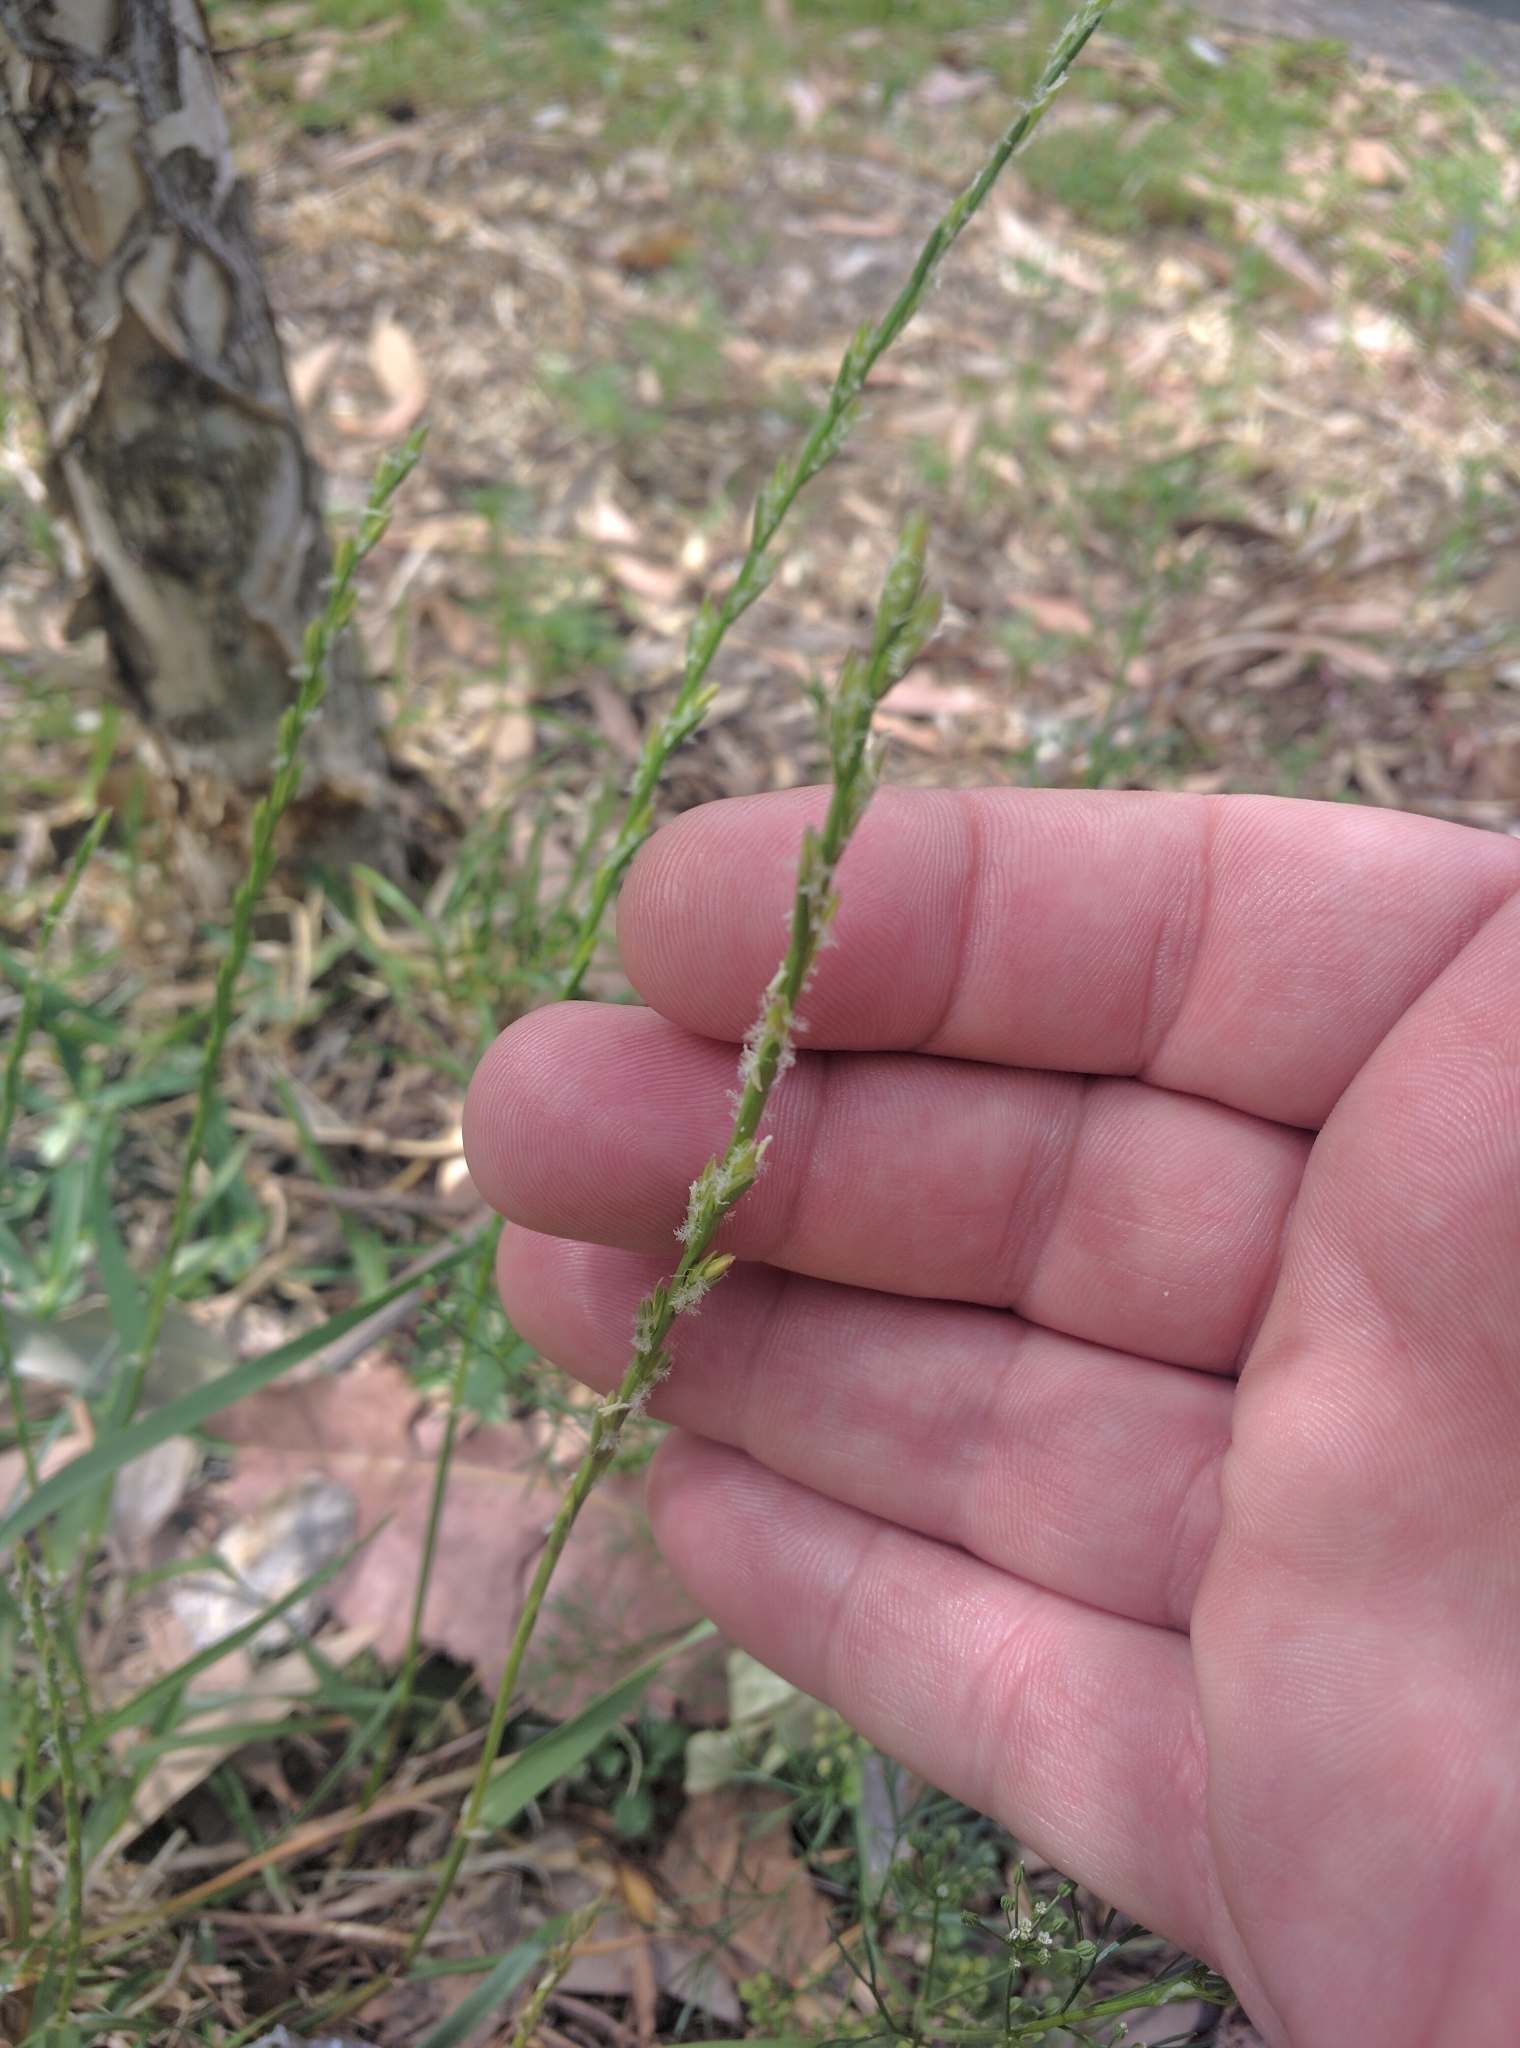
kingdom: Plantae
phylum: Tracheophyta
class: Liliopsida
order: Poales
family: Poaceae
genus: Lolium
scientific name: Lolium
